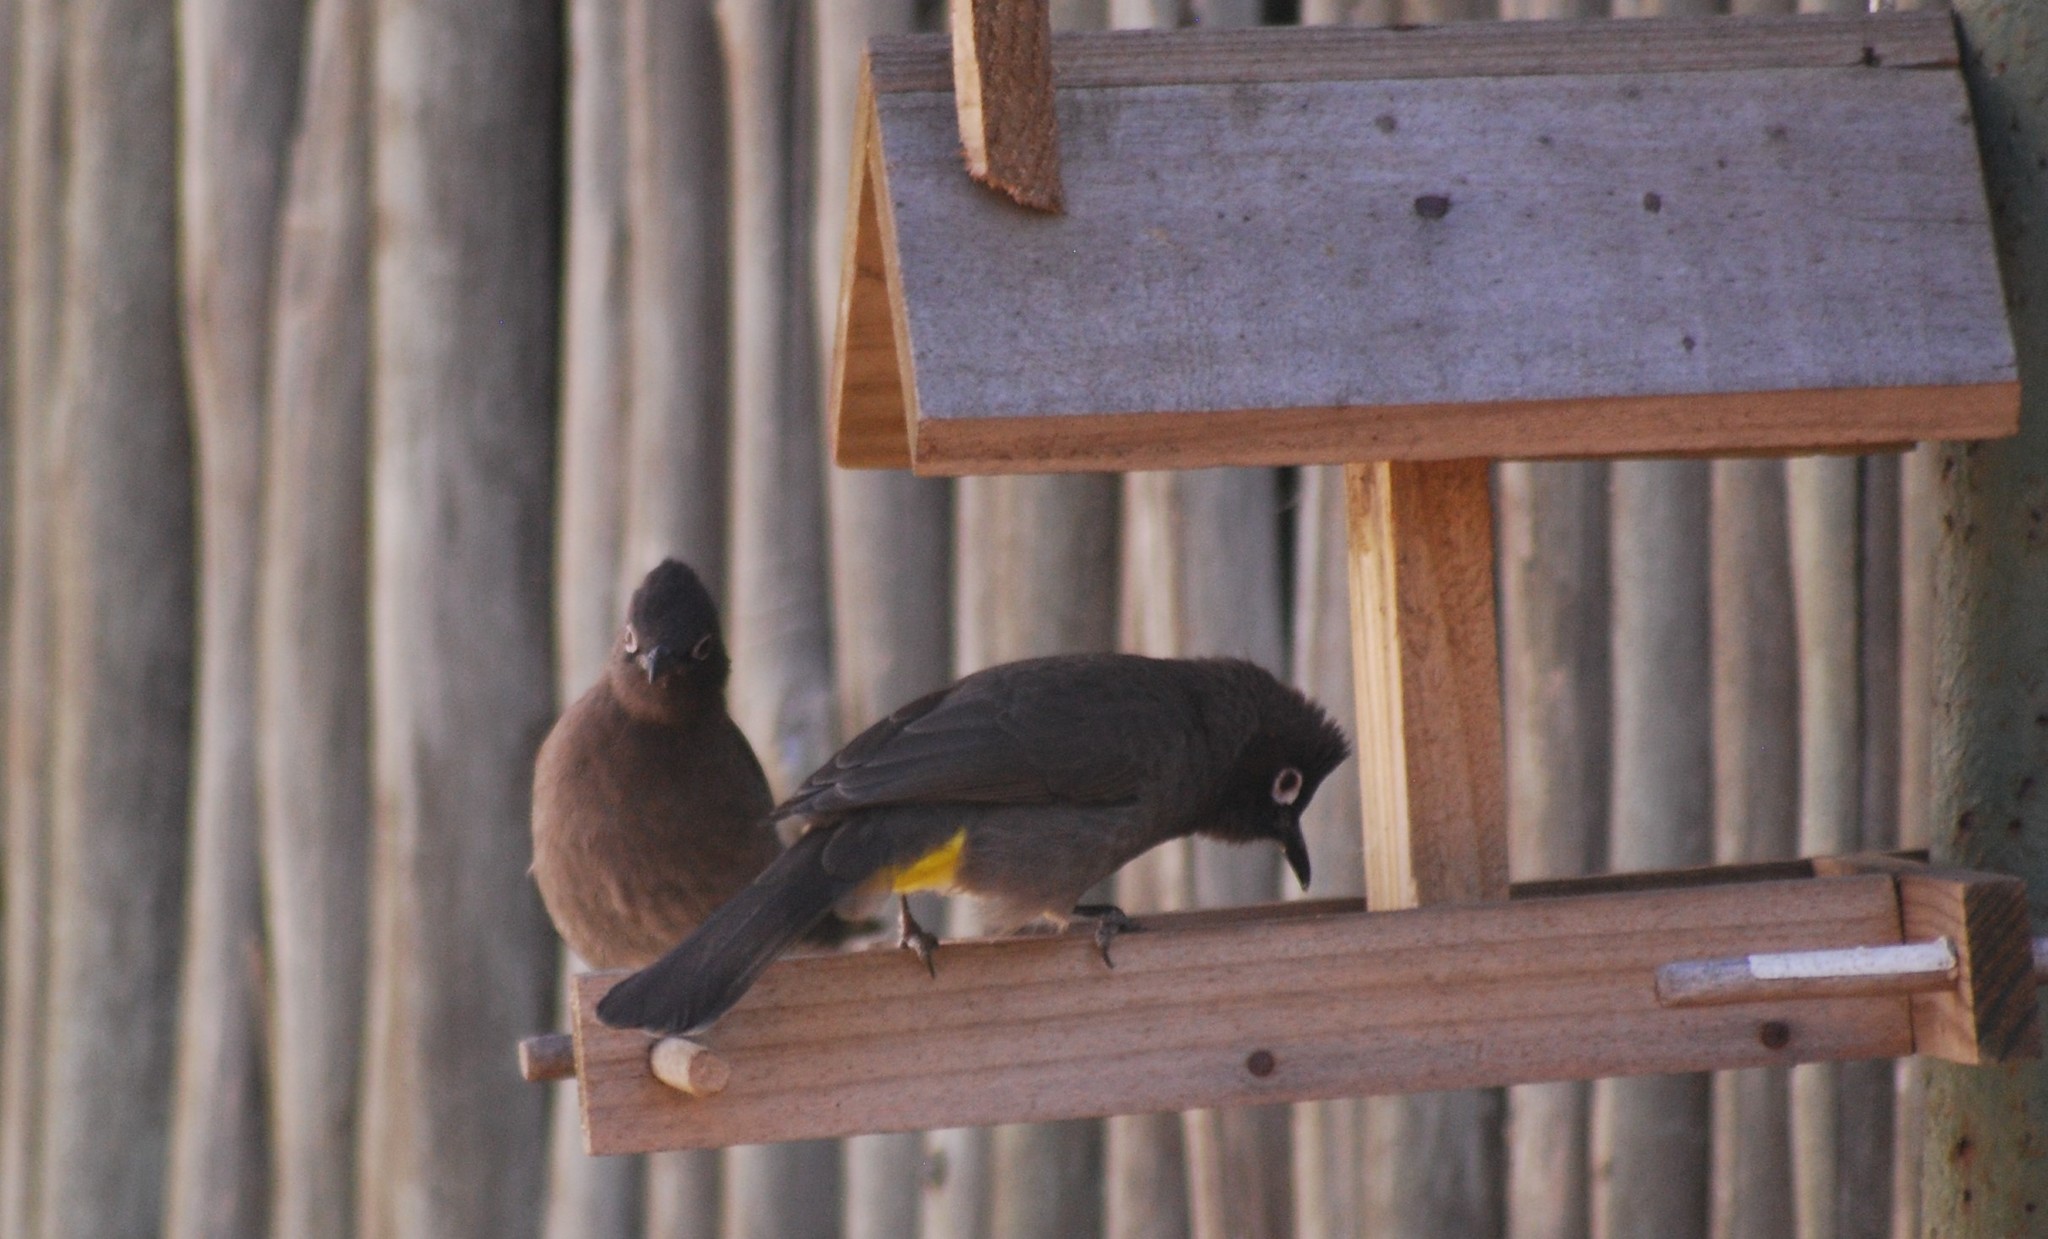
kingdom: Animalia
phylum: Chordata
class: Aves
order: Passeriformes
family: Pycnonotidae
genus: Pycnonotus
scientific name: Pycnonotus capensis
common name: Cape bulbul
